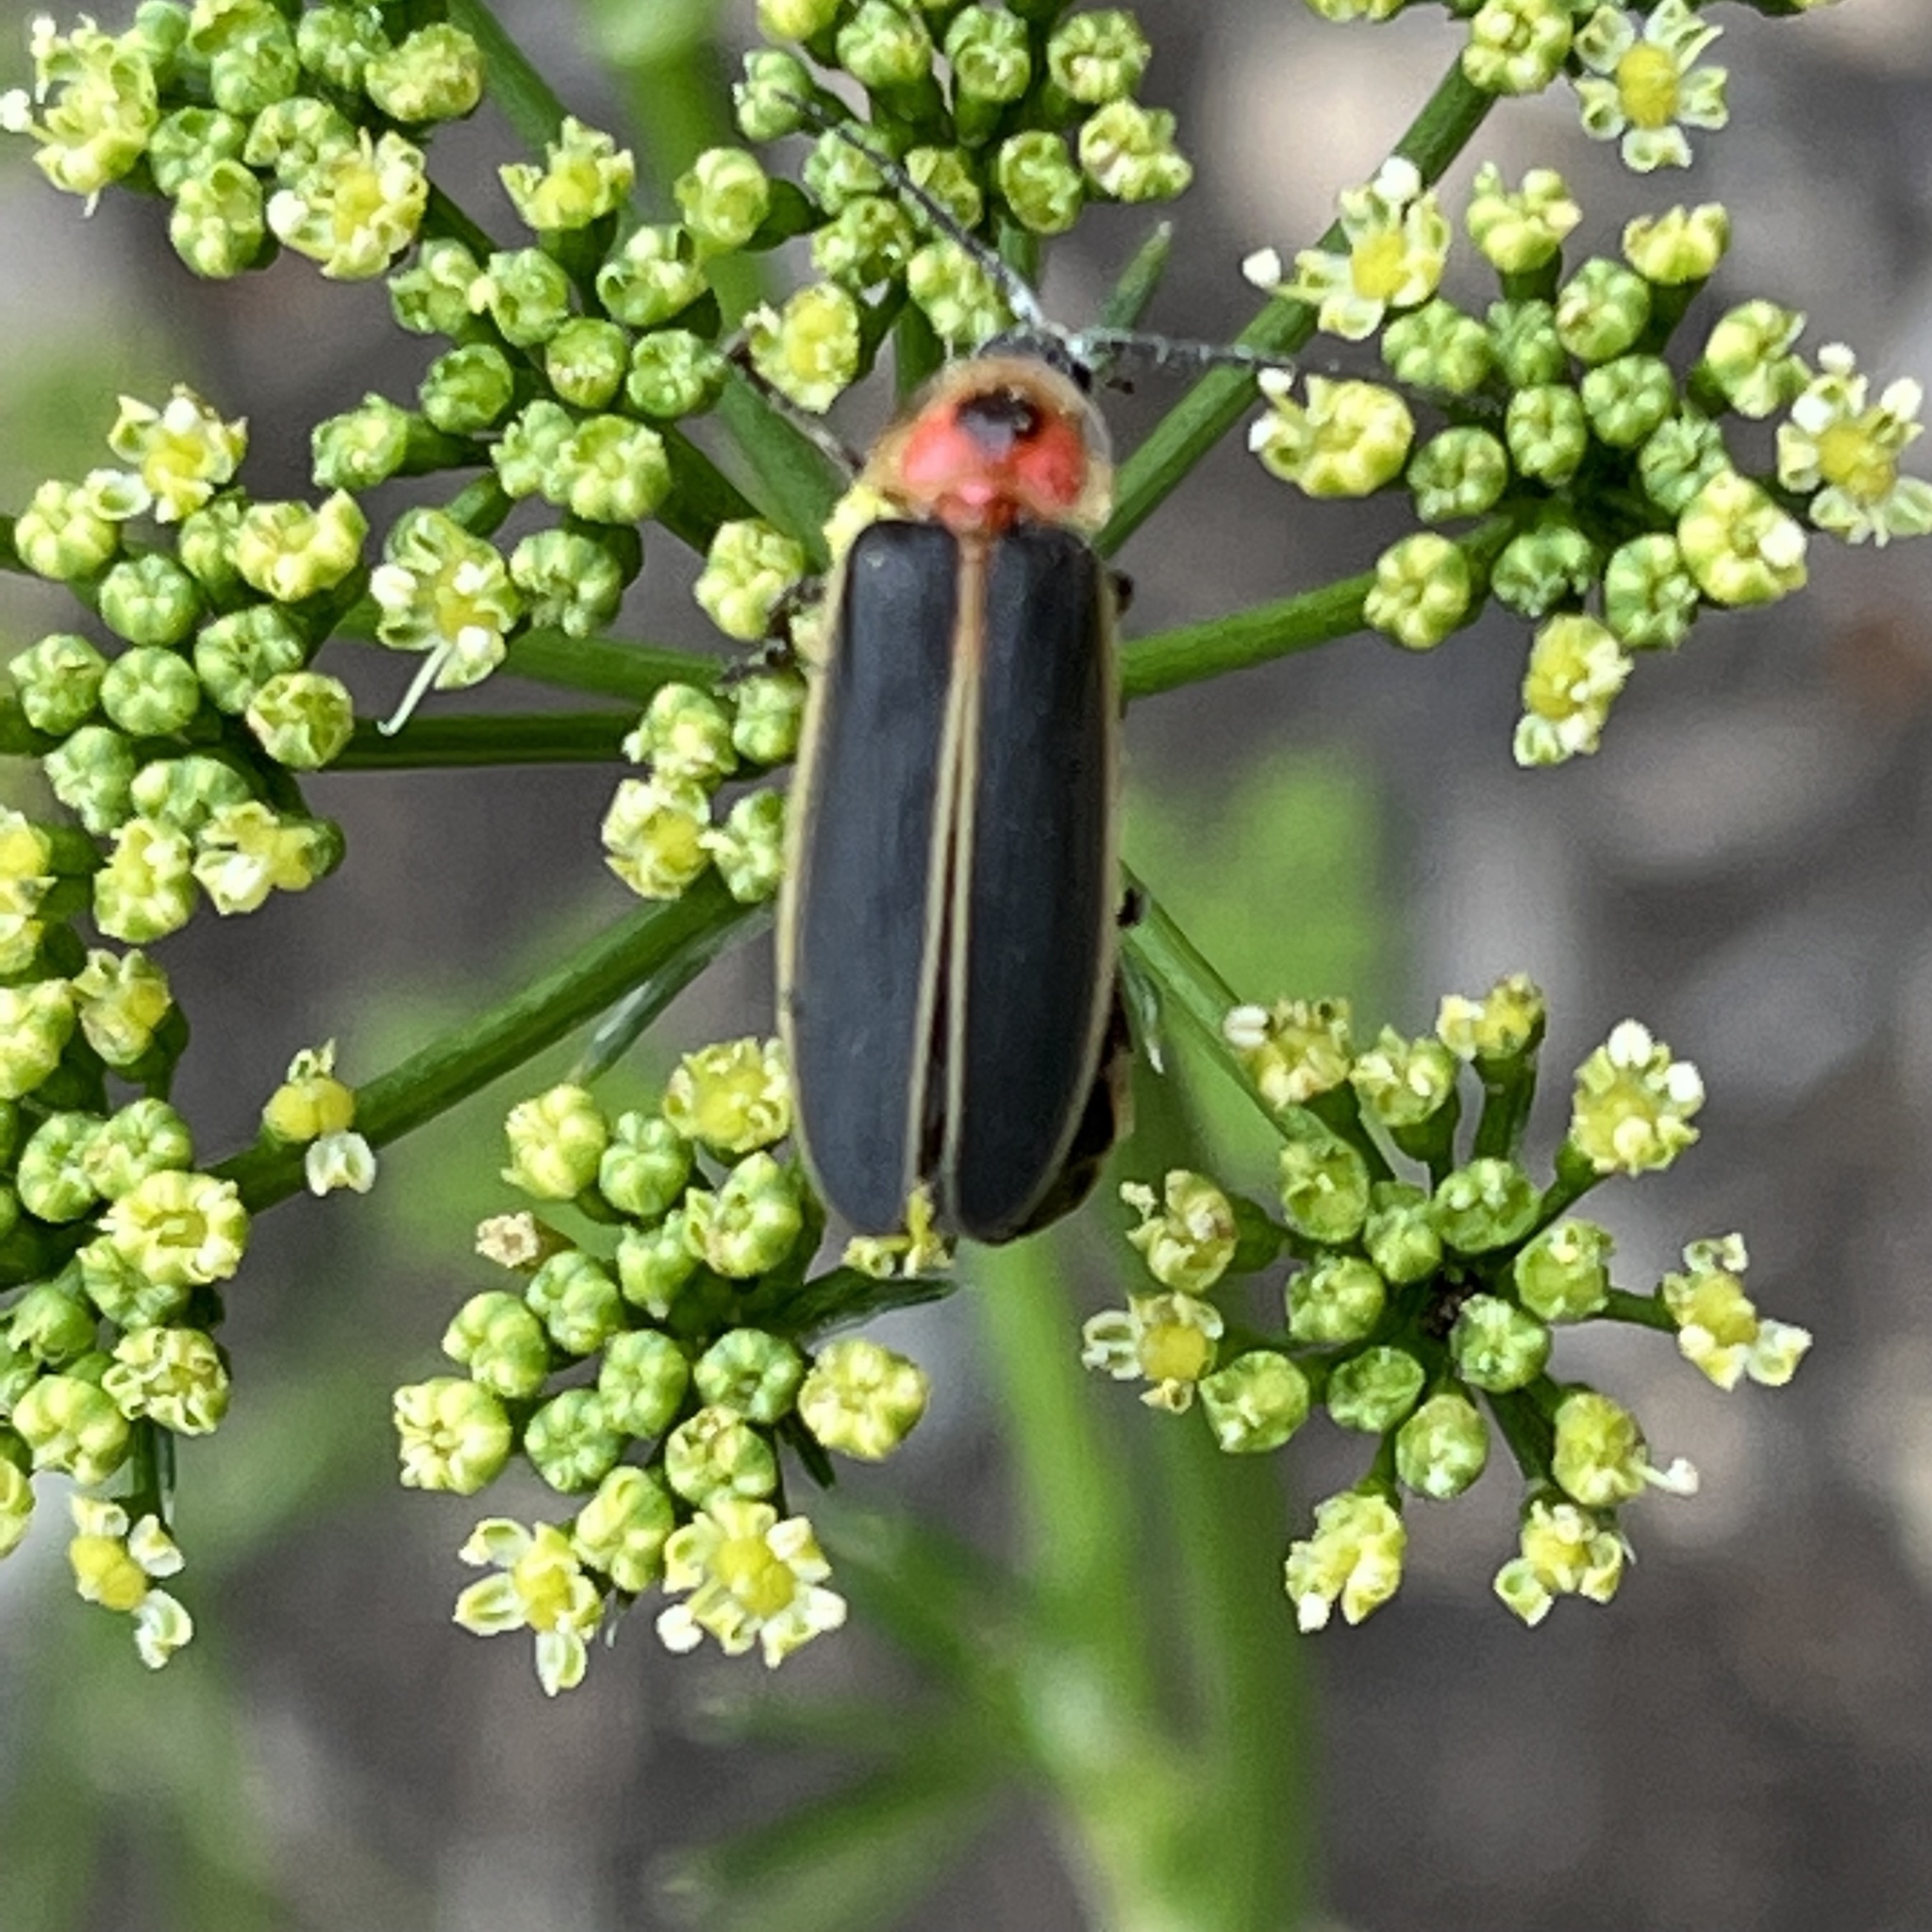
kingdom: Animalia
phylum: Arthropoda
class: Insecta
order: Coleoptera
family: Lampyridae
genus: Photinus
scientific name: Photinus pyralis
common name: Big dipper firefly
